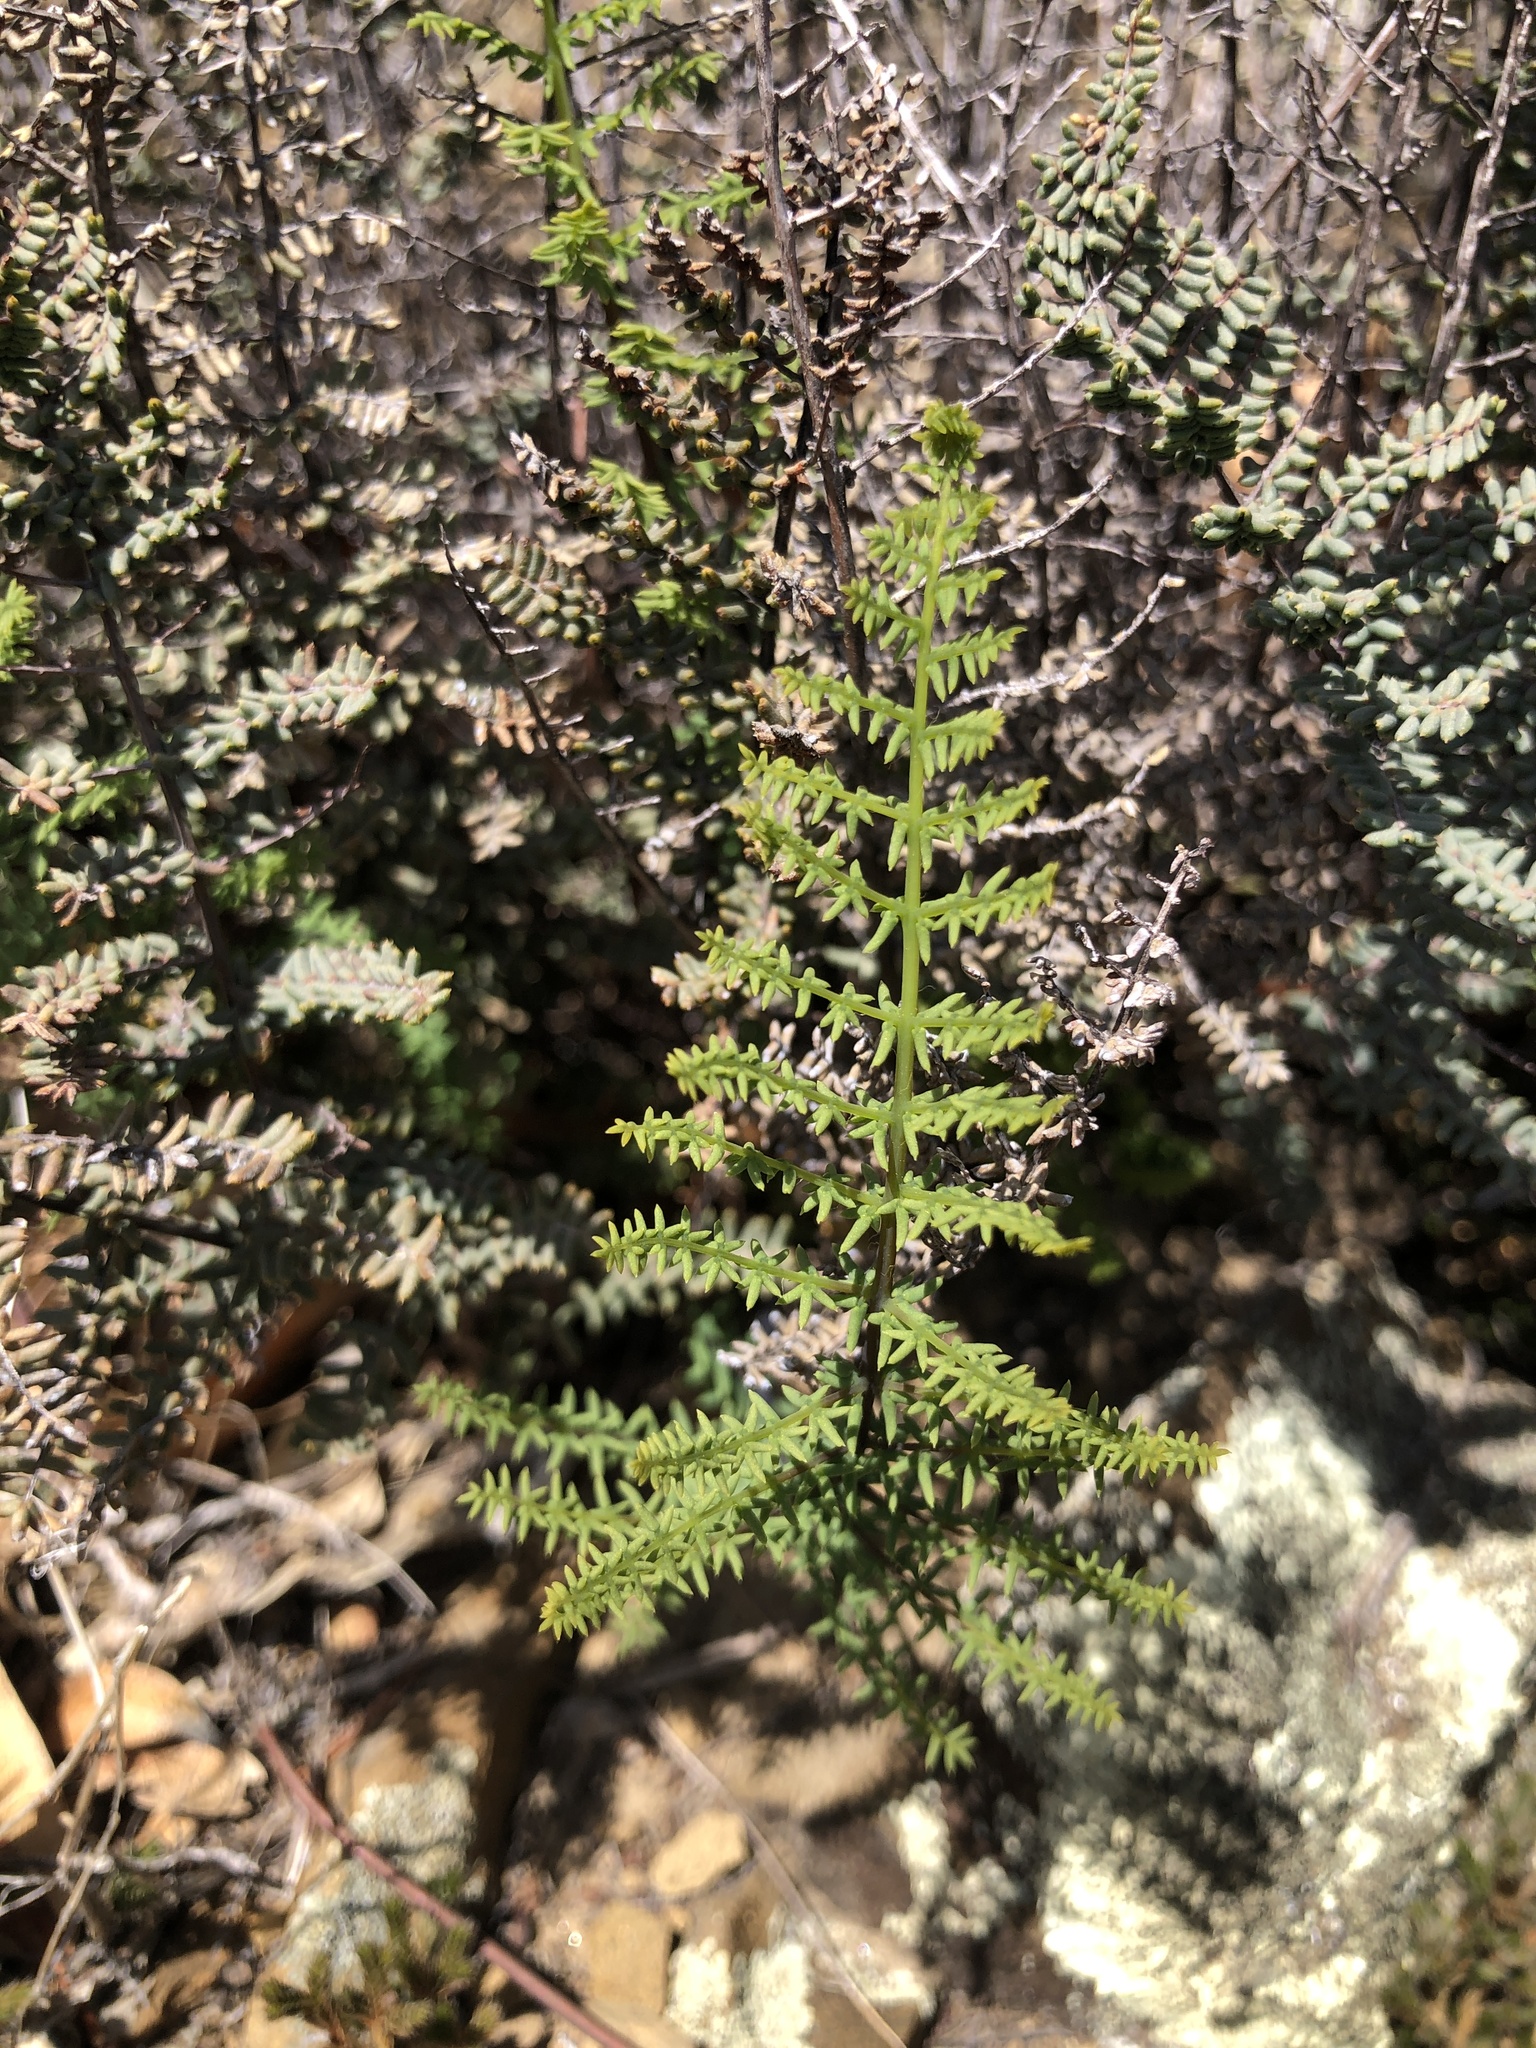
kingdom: Plantae
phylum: Tracheophyta
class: Polypodiopsida
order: Polypodiales
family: Pteridaceae
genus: Pellaea
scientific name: Pellaea mucronata
